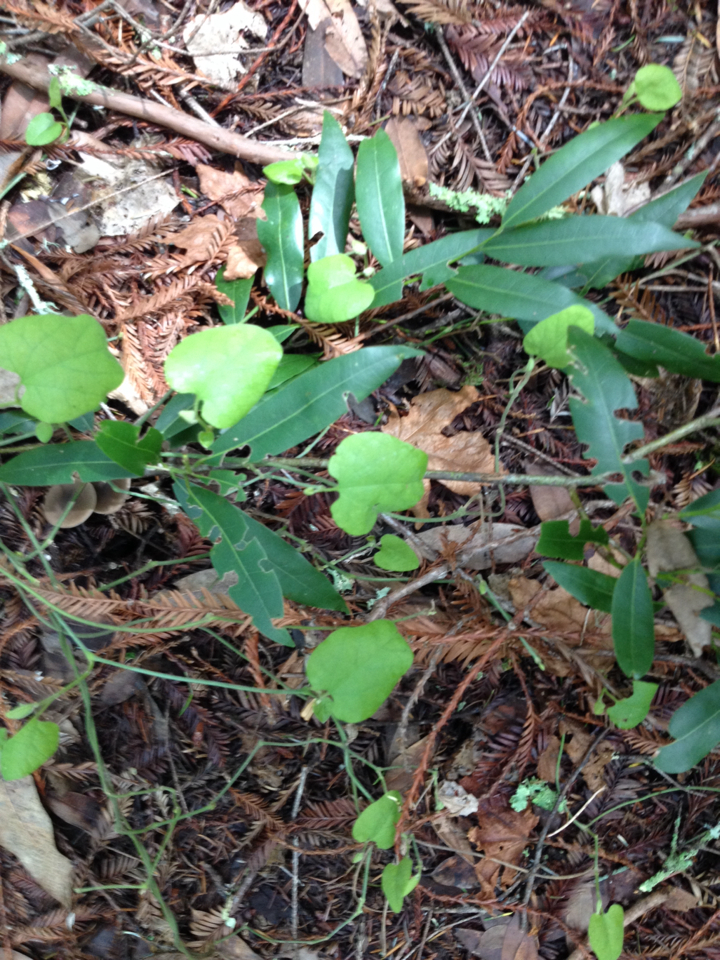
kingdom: Plantae
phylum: Tracheophyta
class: Magnoliopsida
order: Piperales
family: Aristolochiaceae
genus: Isotrema
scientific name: Isotrema californicum
